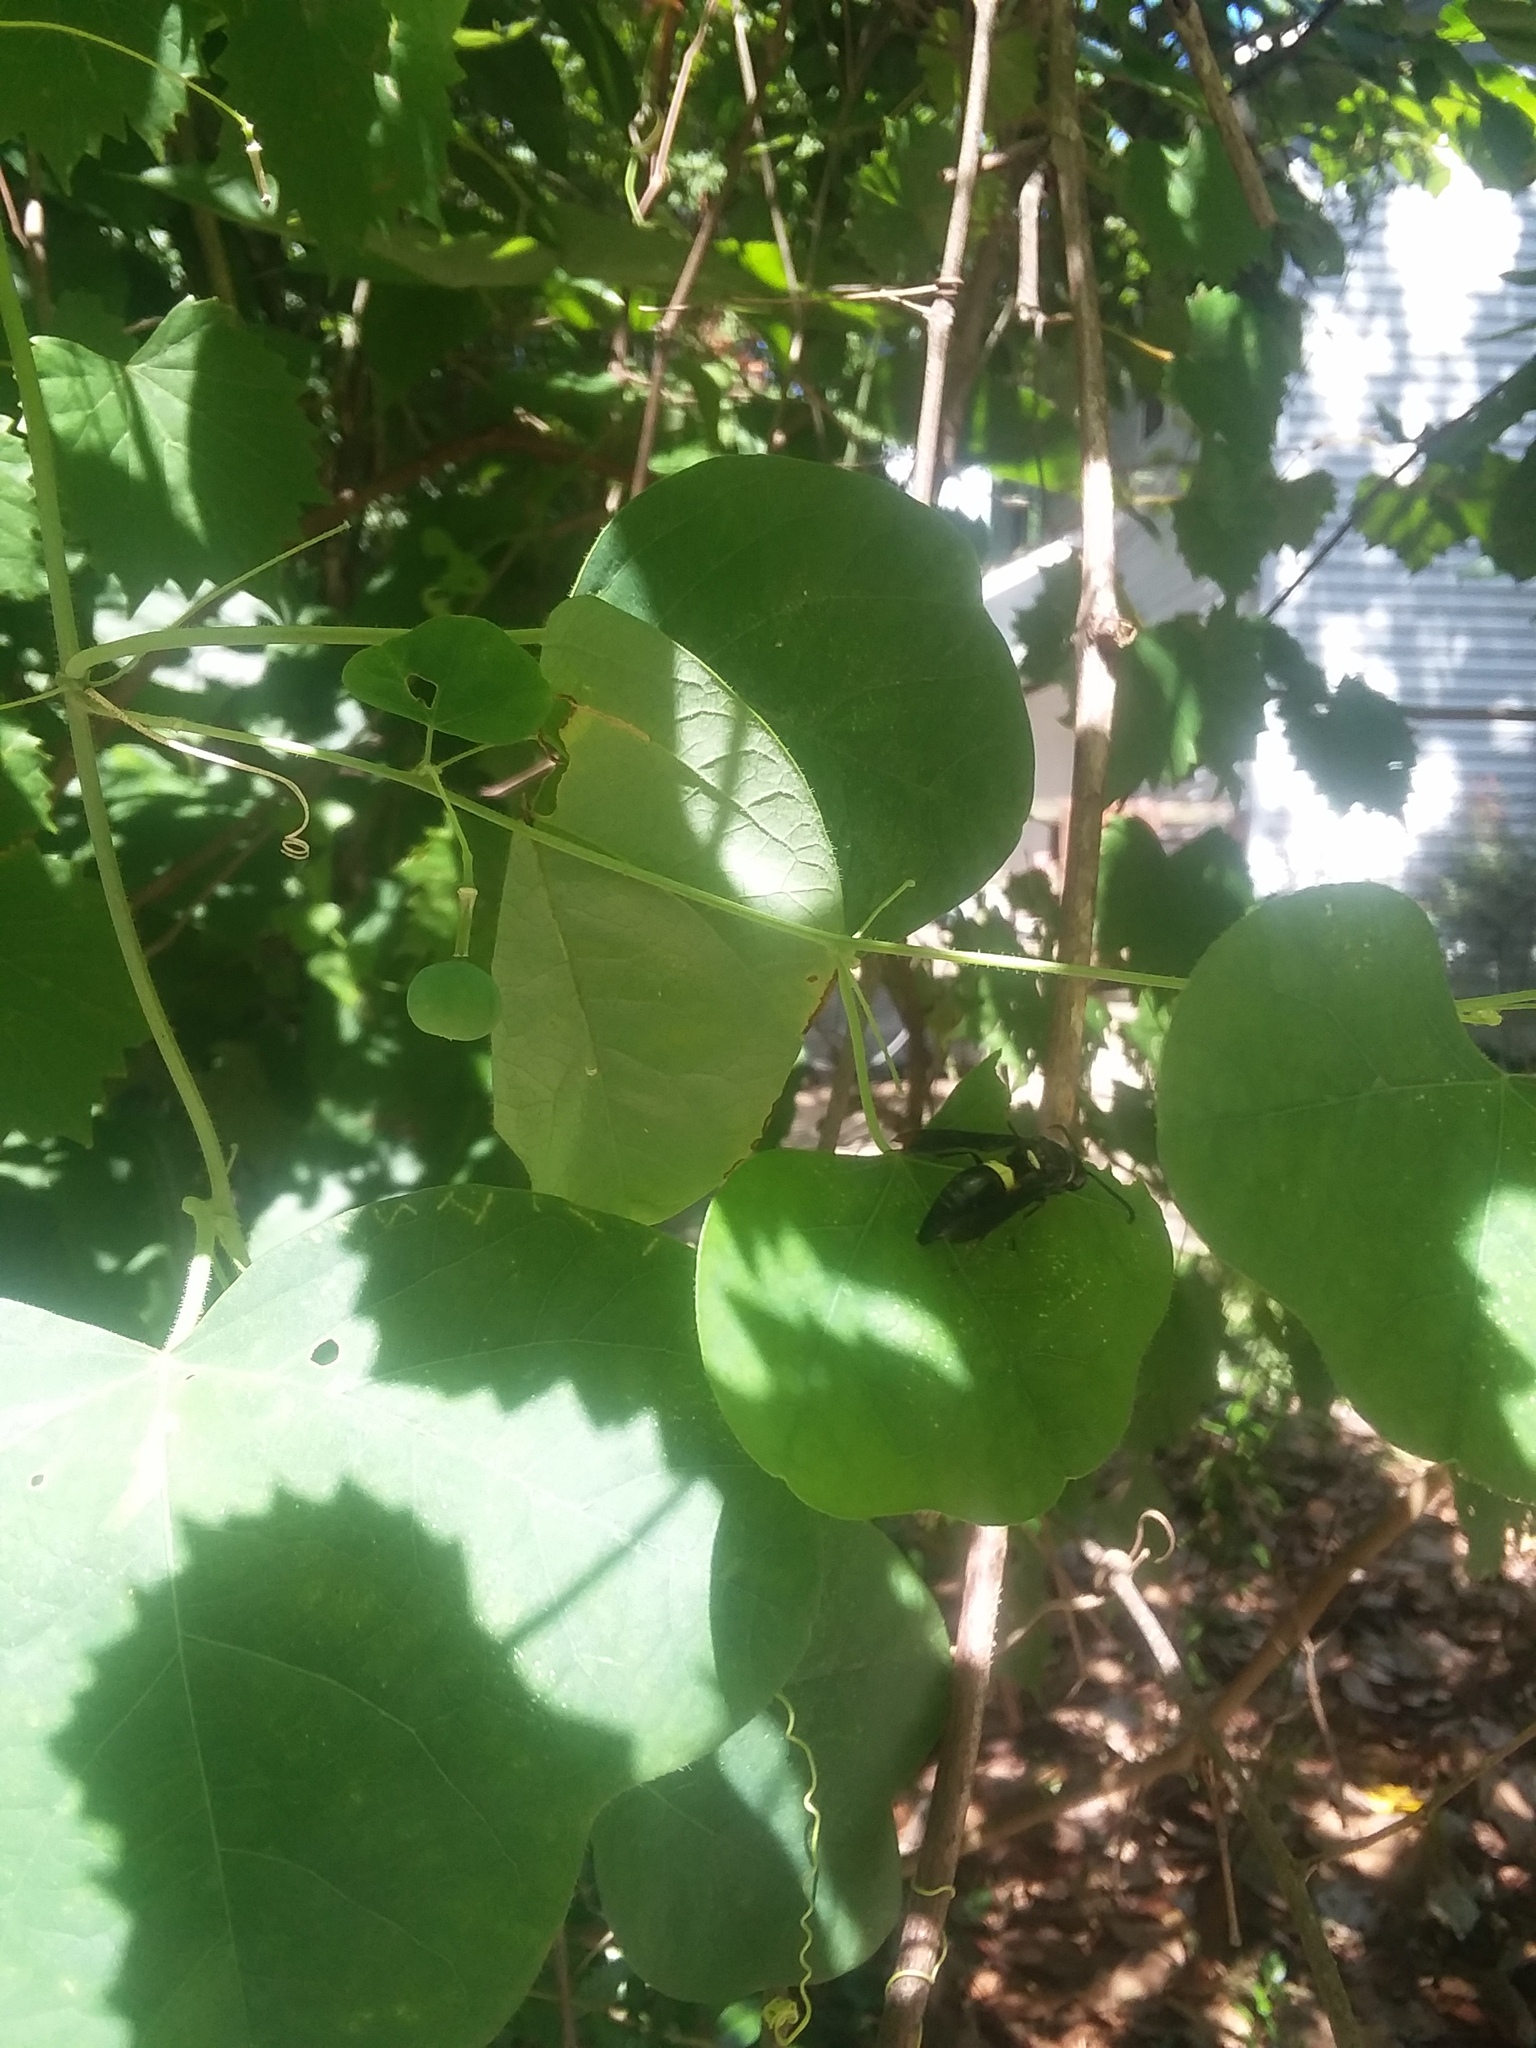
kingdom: Animalia
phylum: Arthropoda
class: Insecta
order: Hymenoptera
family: Eumenidae
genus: Monobia
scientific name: Monobia quadridens
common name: Four-toothed mason wasp
